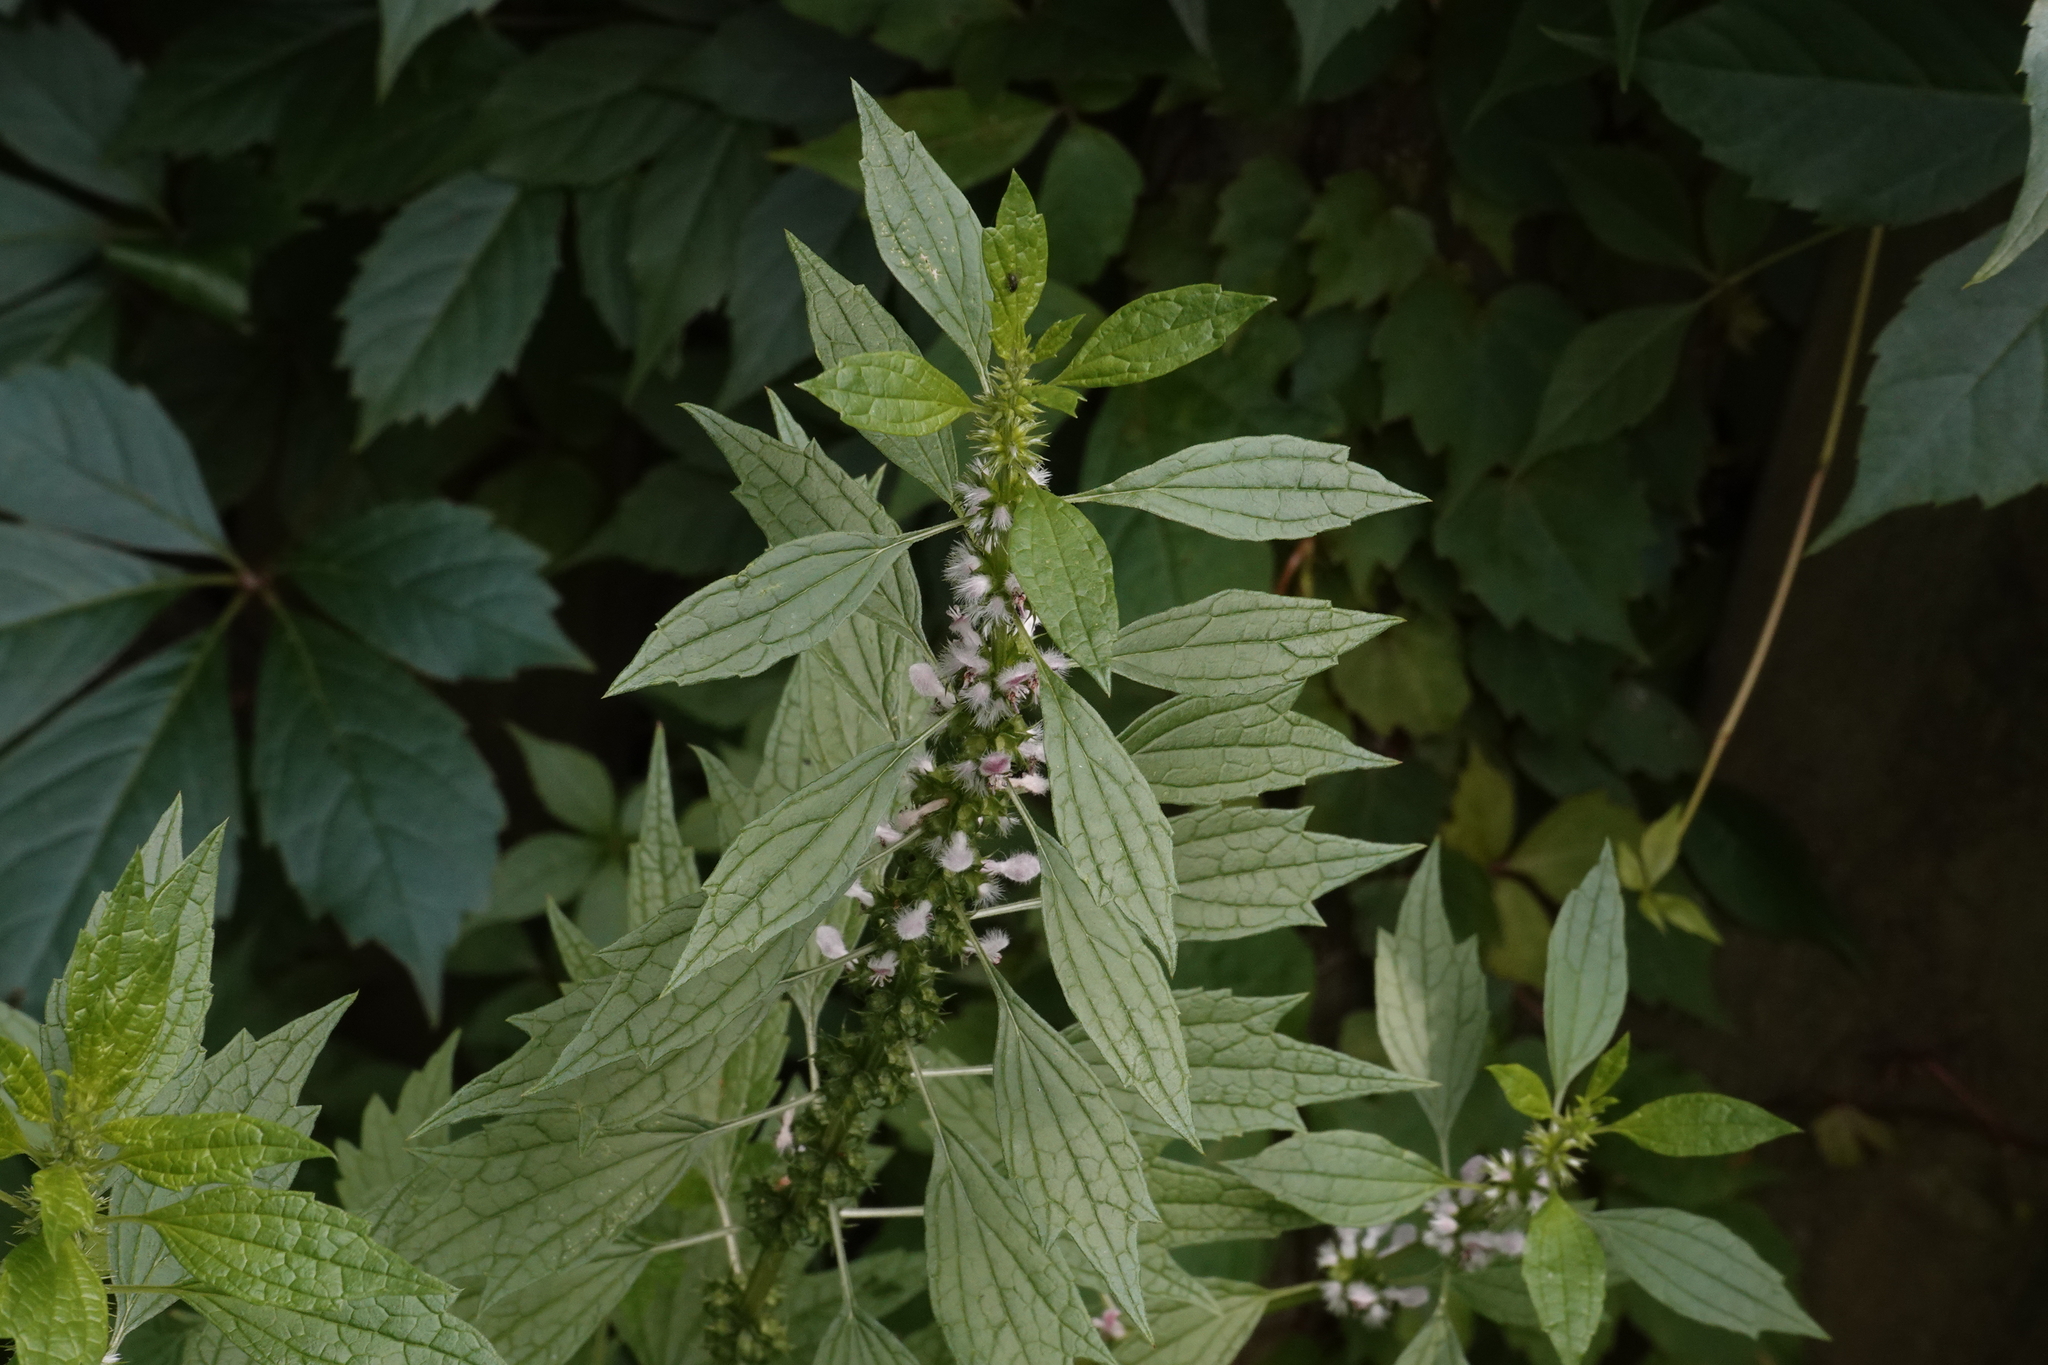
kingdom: Plantae
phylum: Tracheophyta
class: Magnoliopsida
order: Lamiales
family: Lamiaceae
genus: Leonurus
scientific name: Leonurus cardiaca
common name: Motherwort
